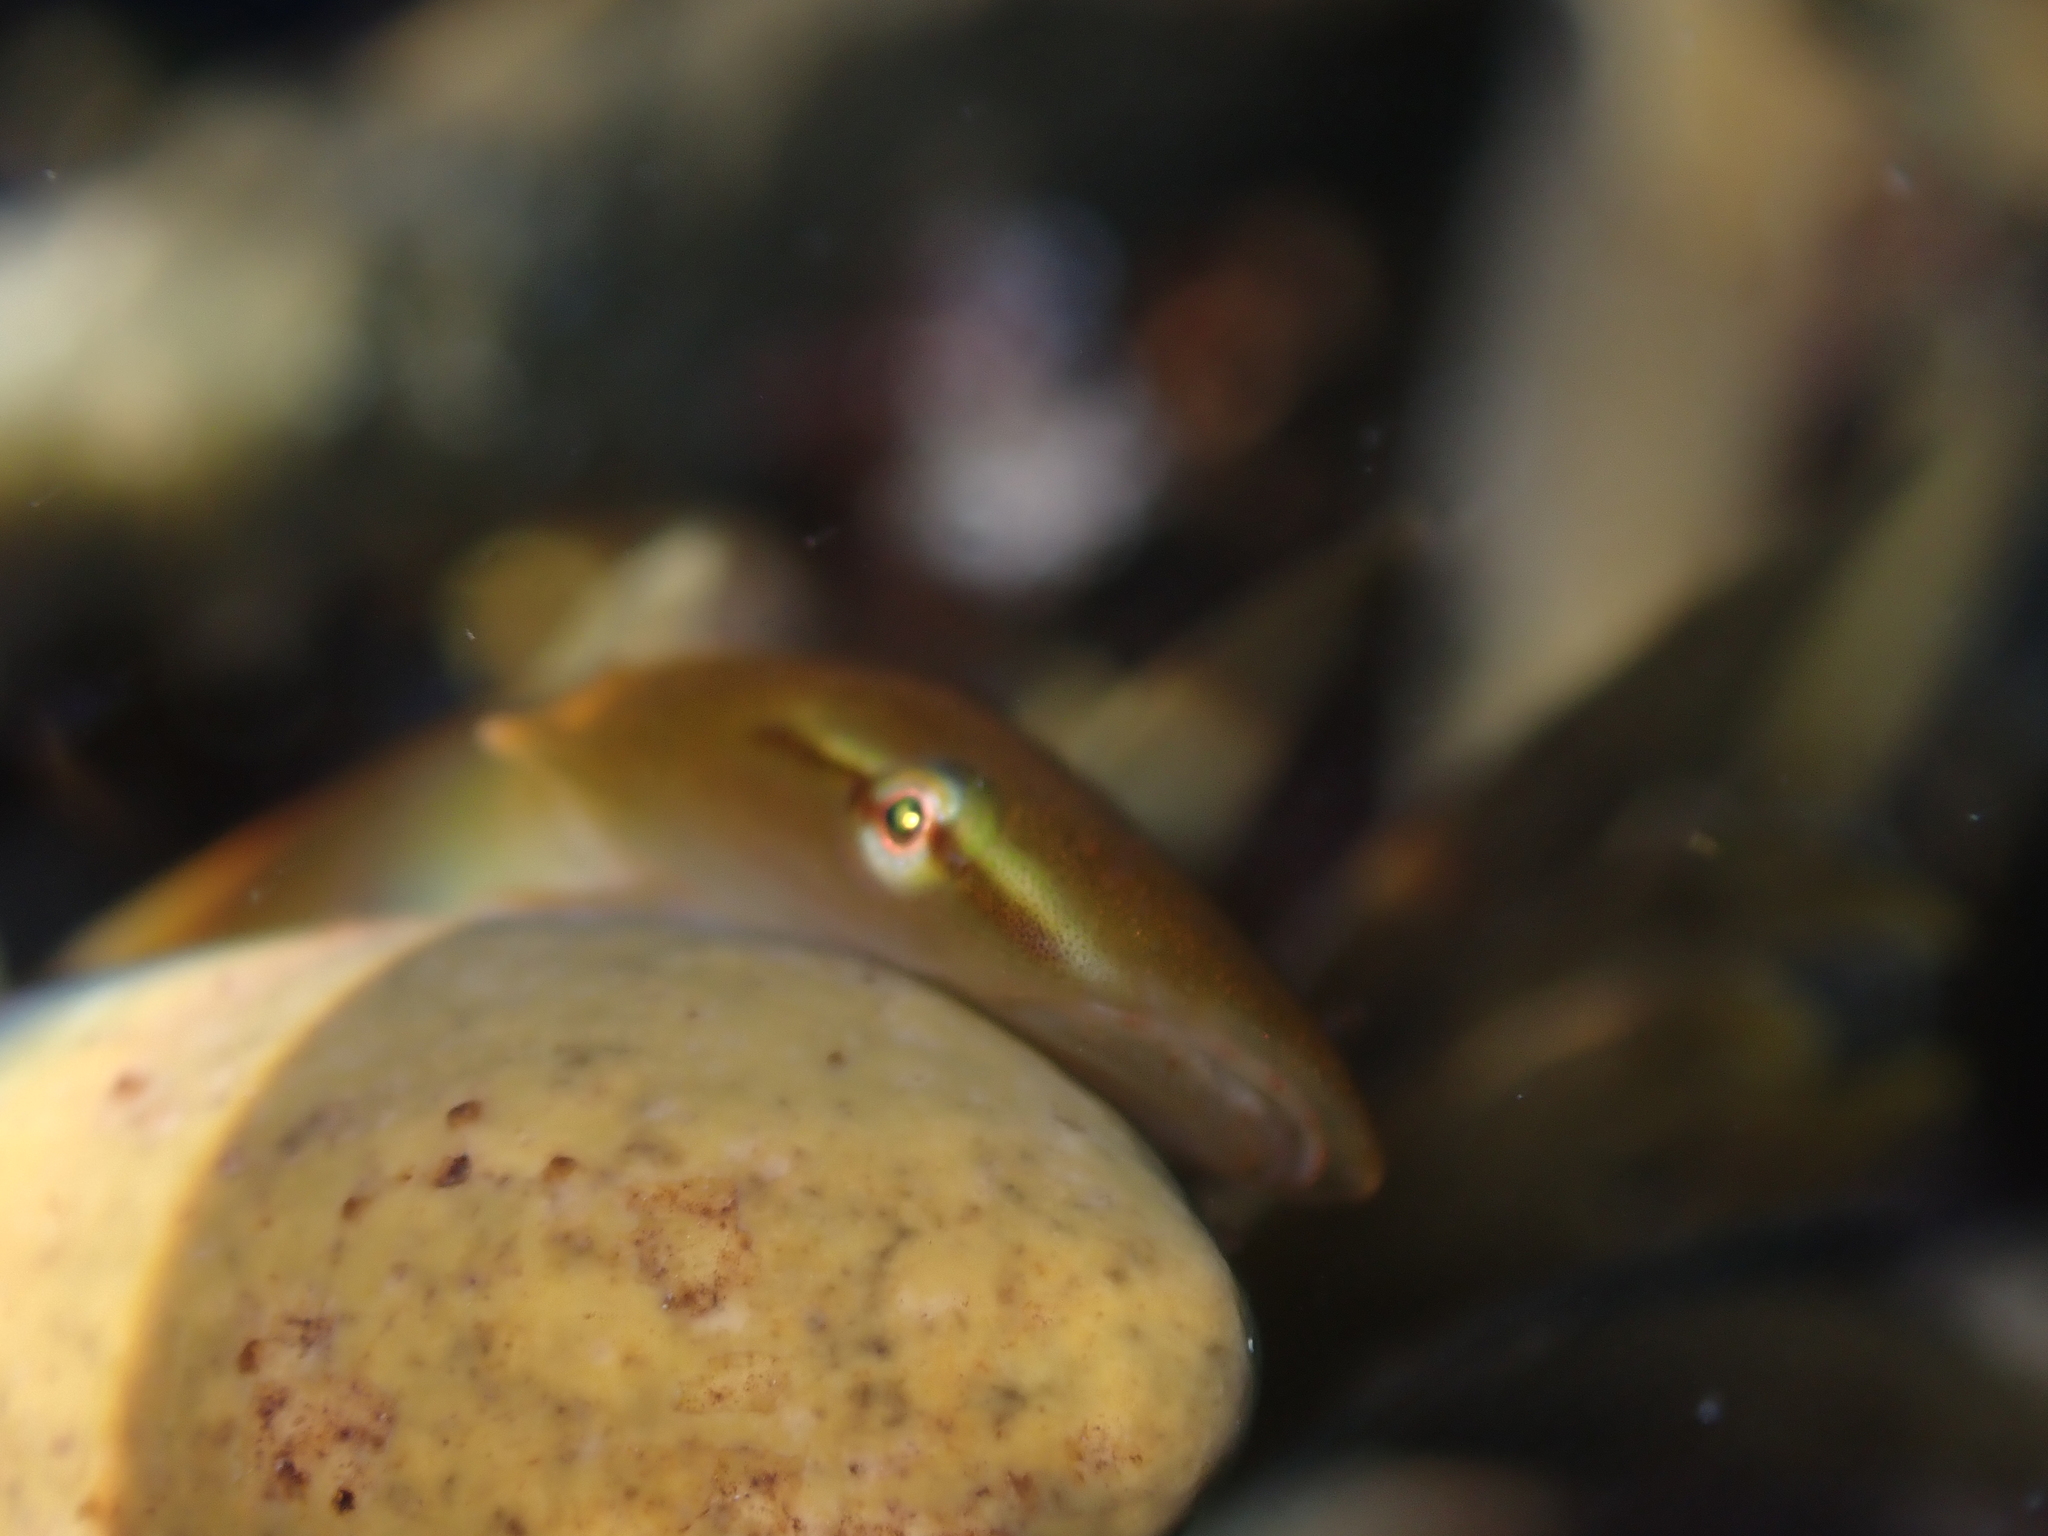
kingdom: Animalia
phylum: Chordata
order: Gobiesociformes
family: Gobiesocidae
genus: Haplocylix
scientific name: Haplocylix littoreus
